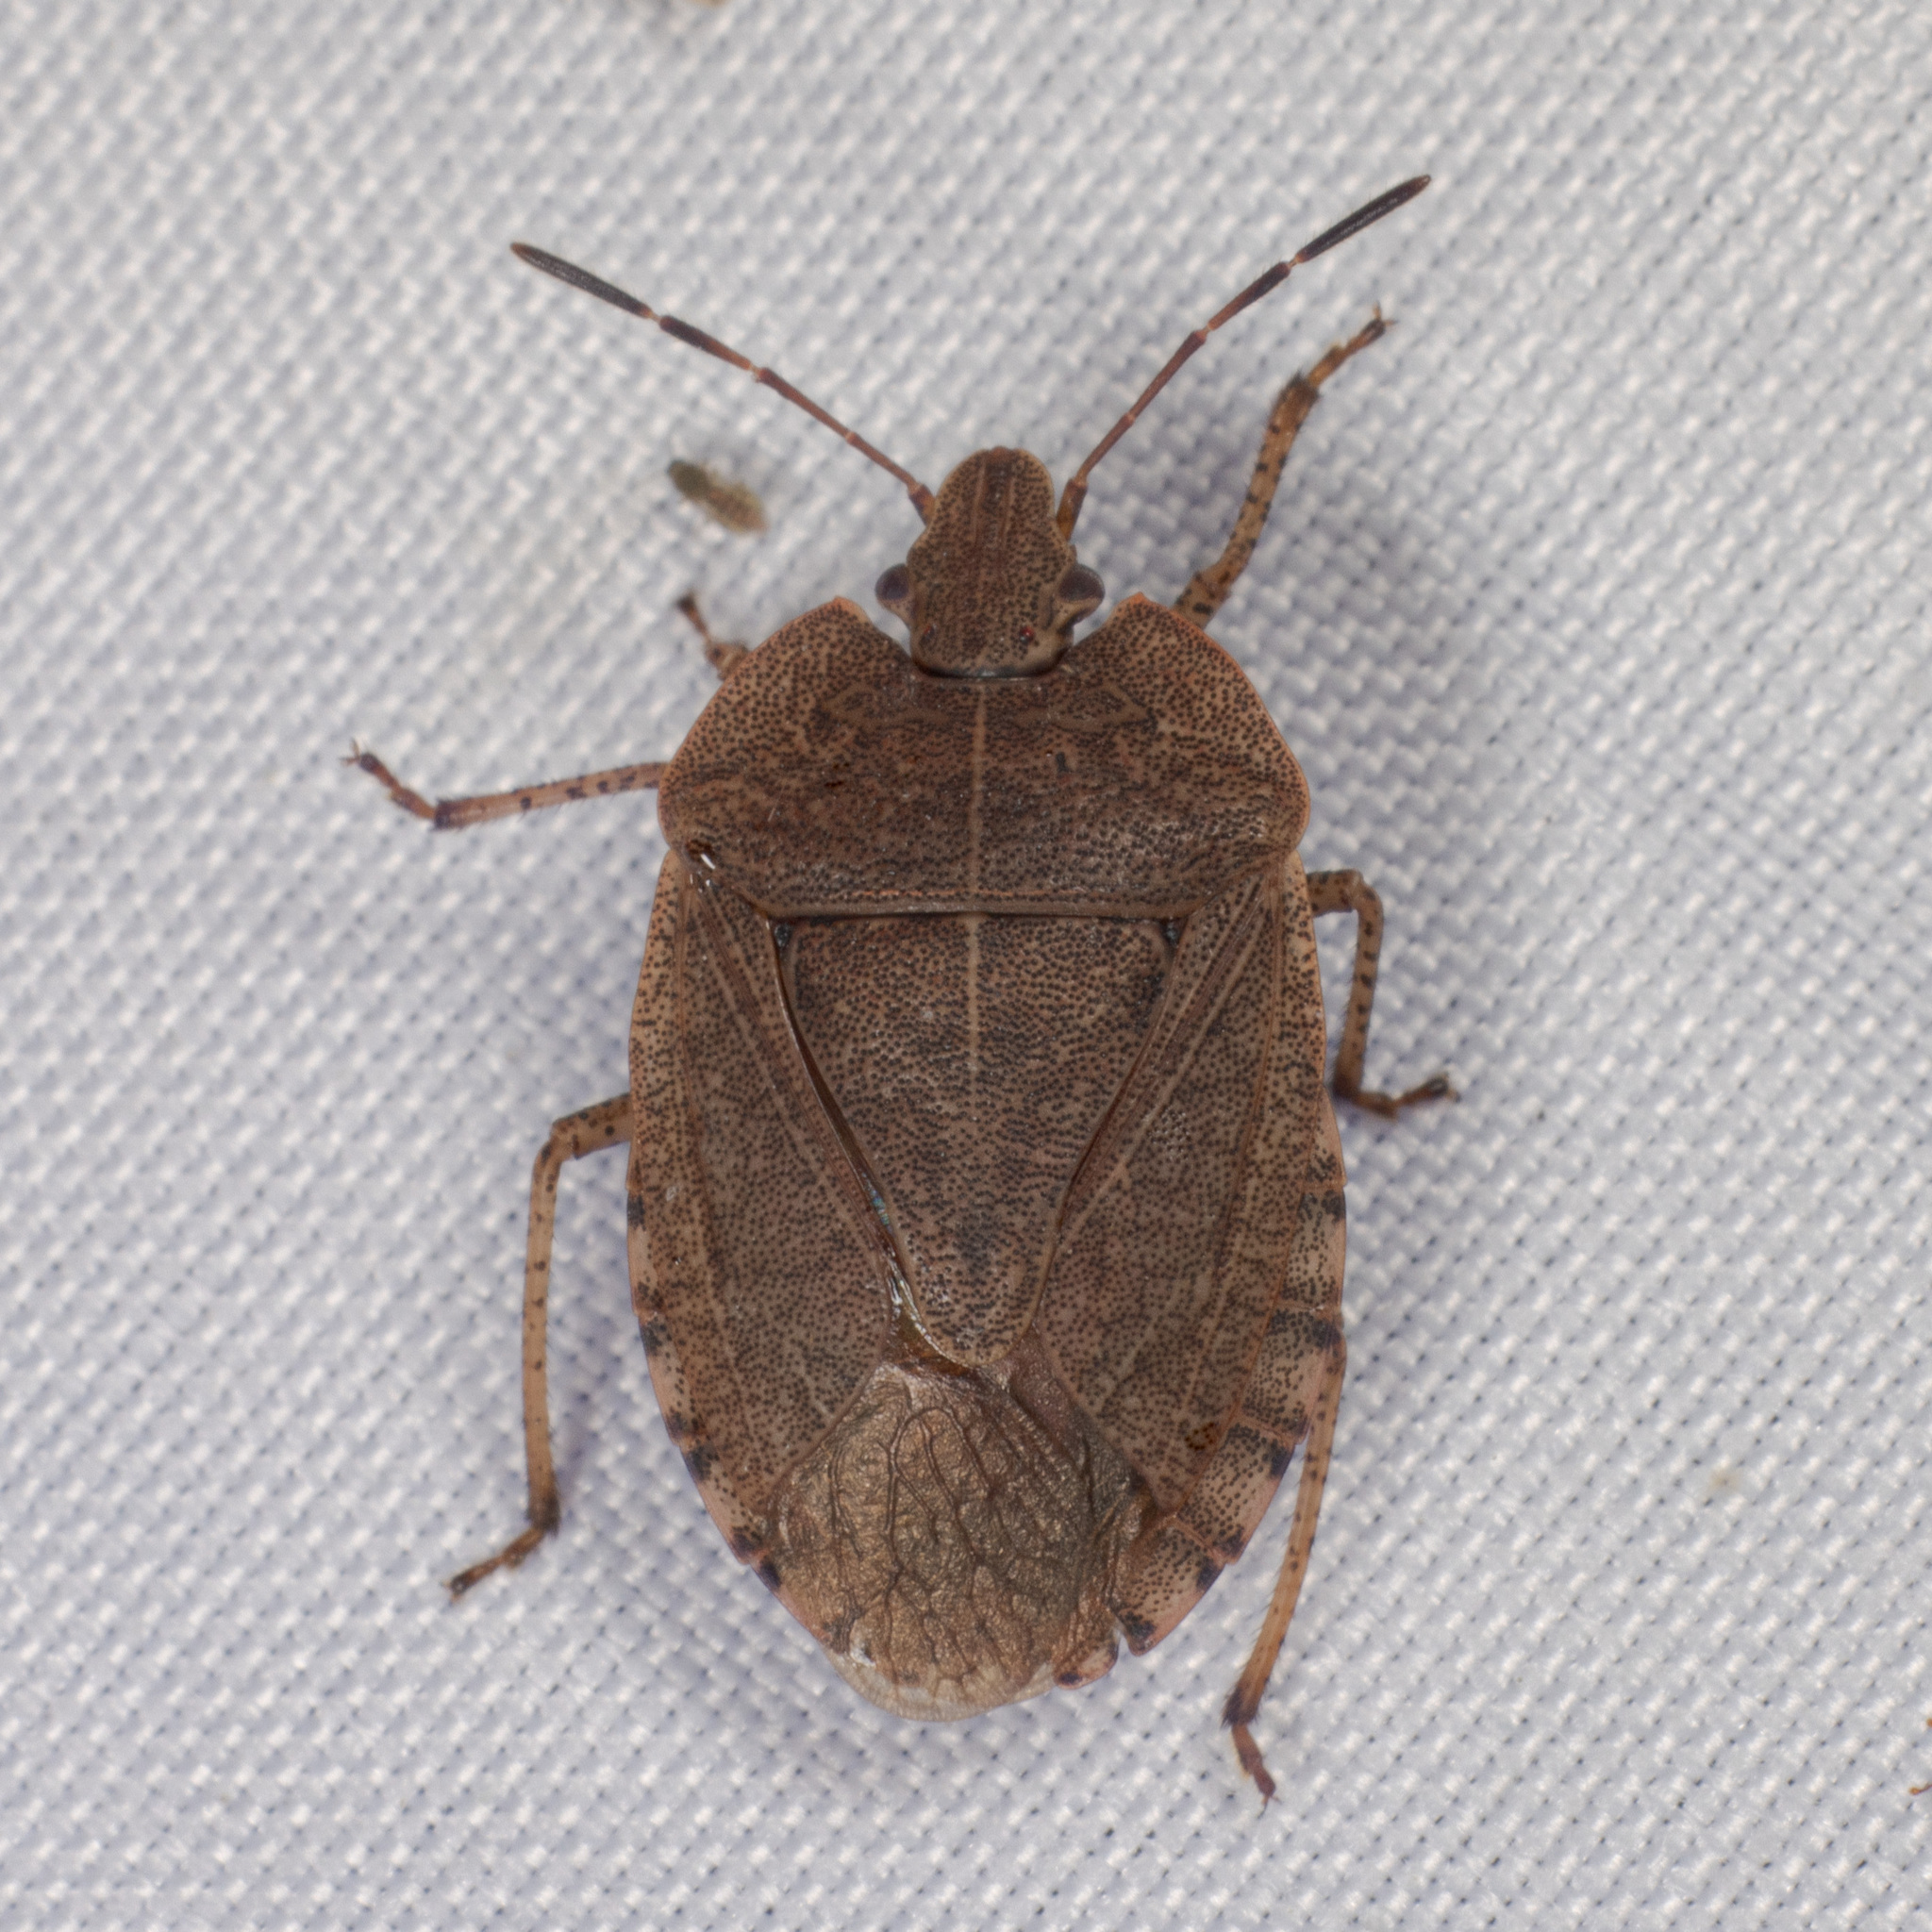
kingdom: Animalia
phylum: Arthropoda
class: Insecta
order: Hemiptera
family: Pentatomidae
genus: Menecles
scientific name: Menecles insertus
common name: Elf shoe stink bug
